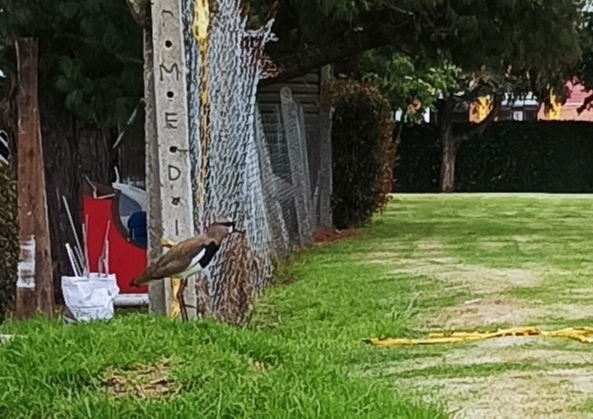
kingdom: Animalia
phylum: Chordata
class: Aves
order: Charadriiformes
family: Charadriidae
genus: Vanellus
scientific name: Vanellus chilensis
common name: Southern lapwing
